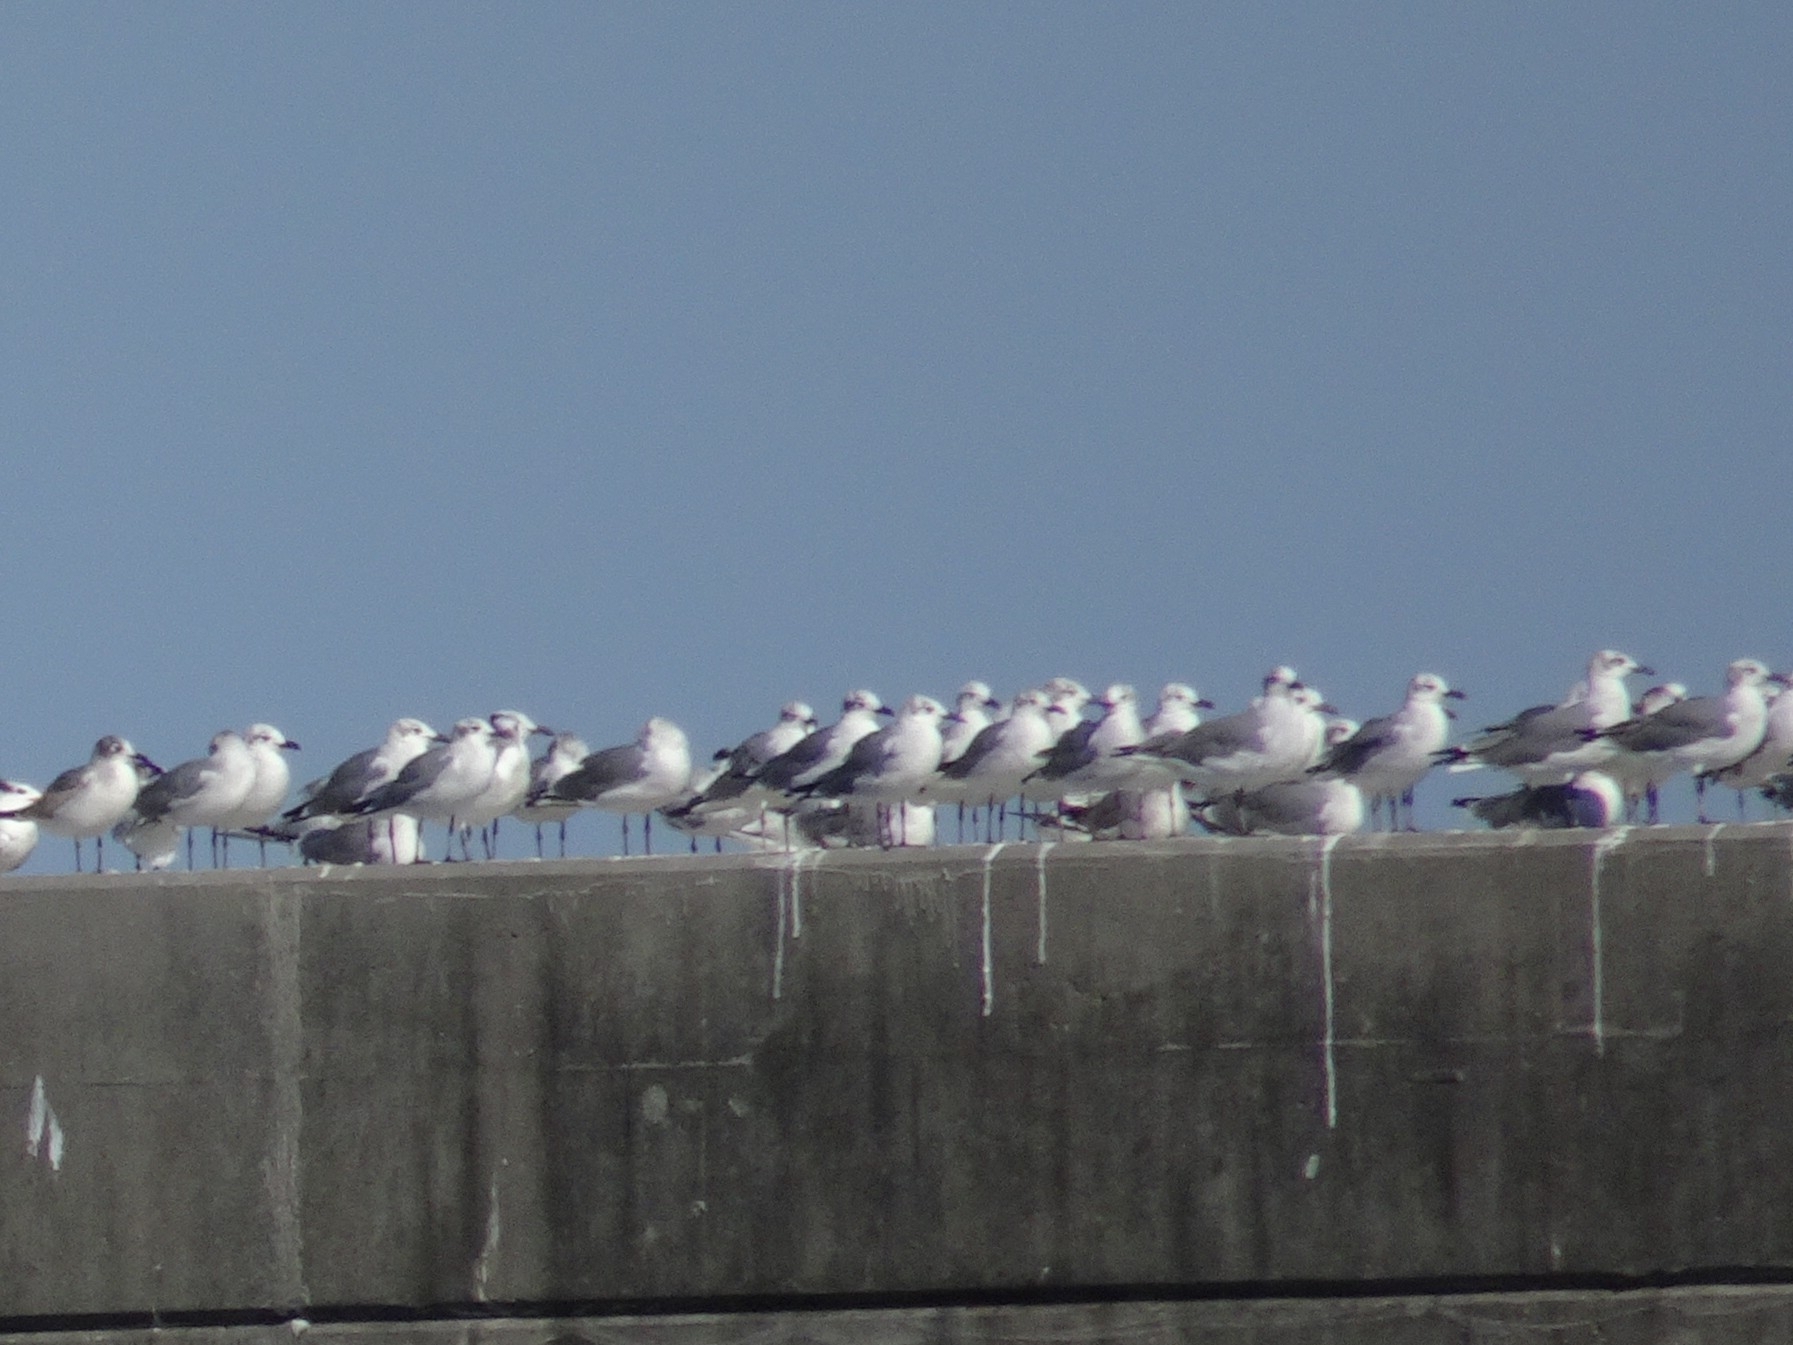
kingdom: Animalia
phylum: Chordata
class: Aves
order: Charadriiformes
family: Laridae
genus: Leucophaeus
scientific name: Leucophaeus atricilla
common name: Laughing gull
